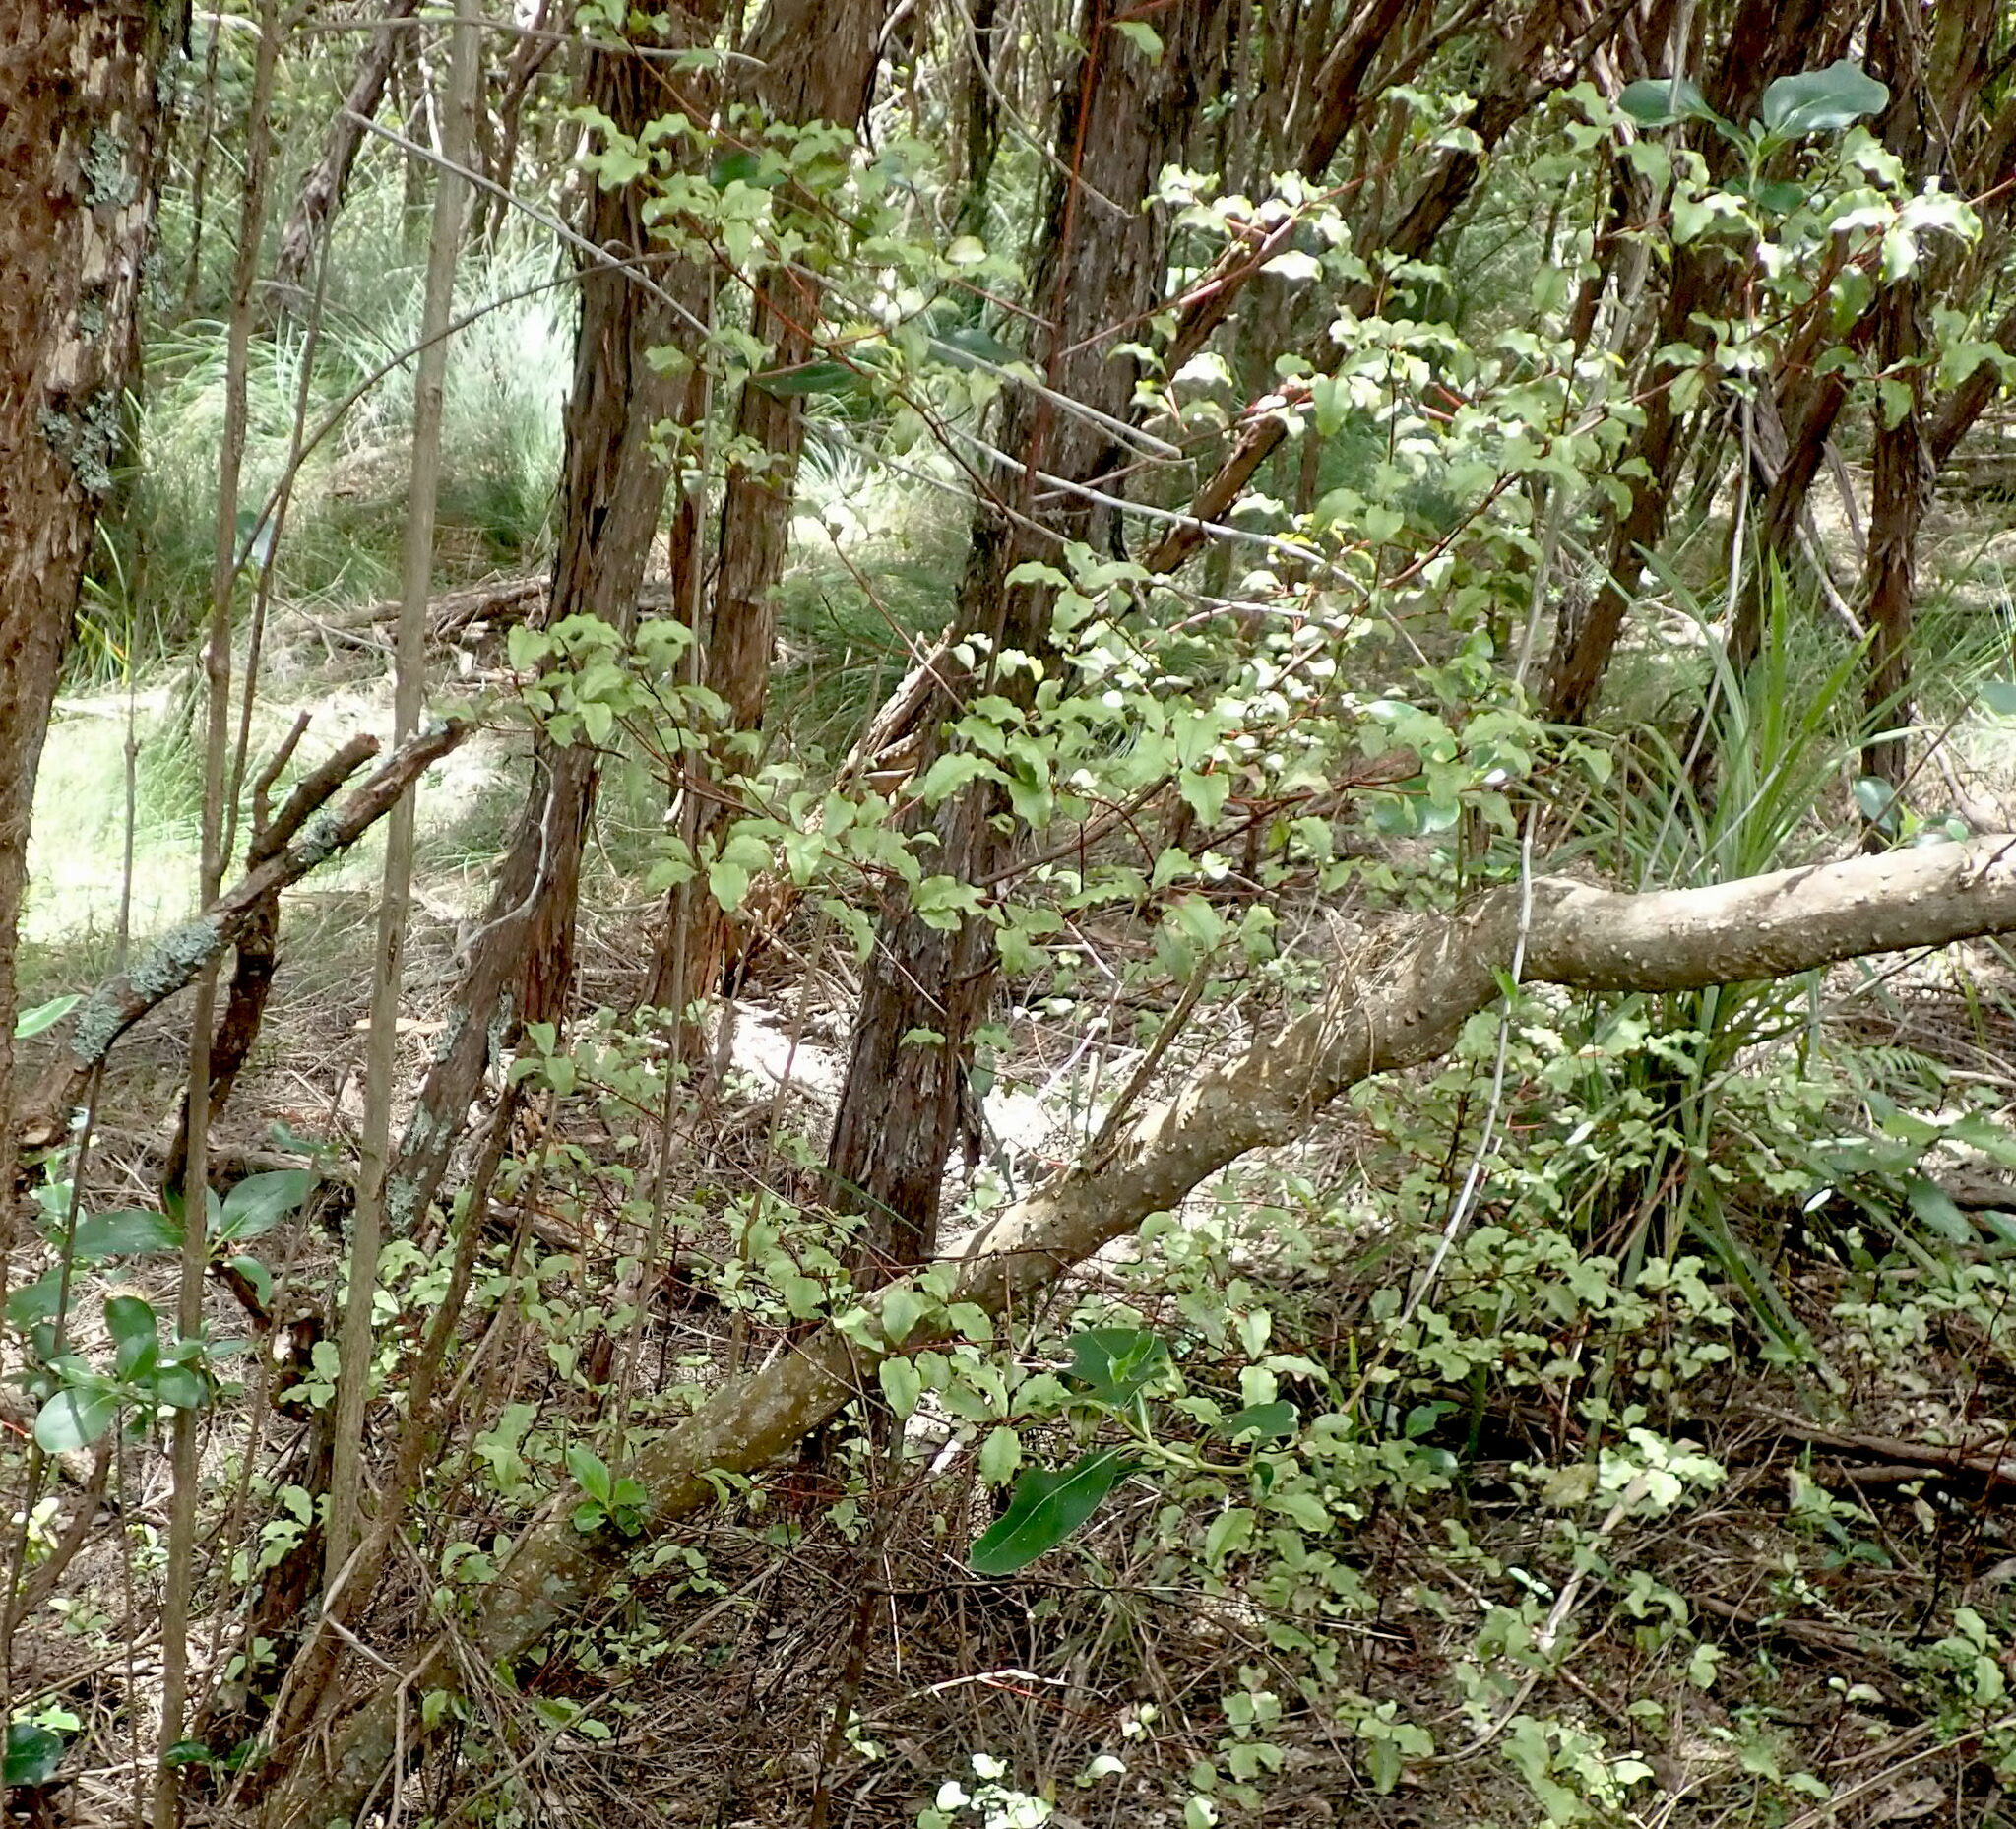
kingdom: Plantae
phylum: Tracheophyta
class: Magnoliopsida
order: Ericales
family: Primulaceae
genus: Myrsine
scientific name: Myrsine australis
